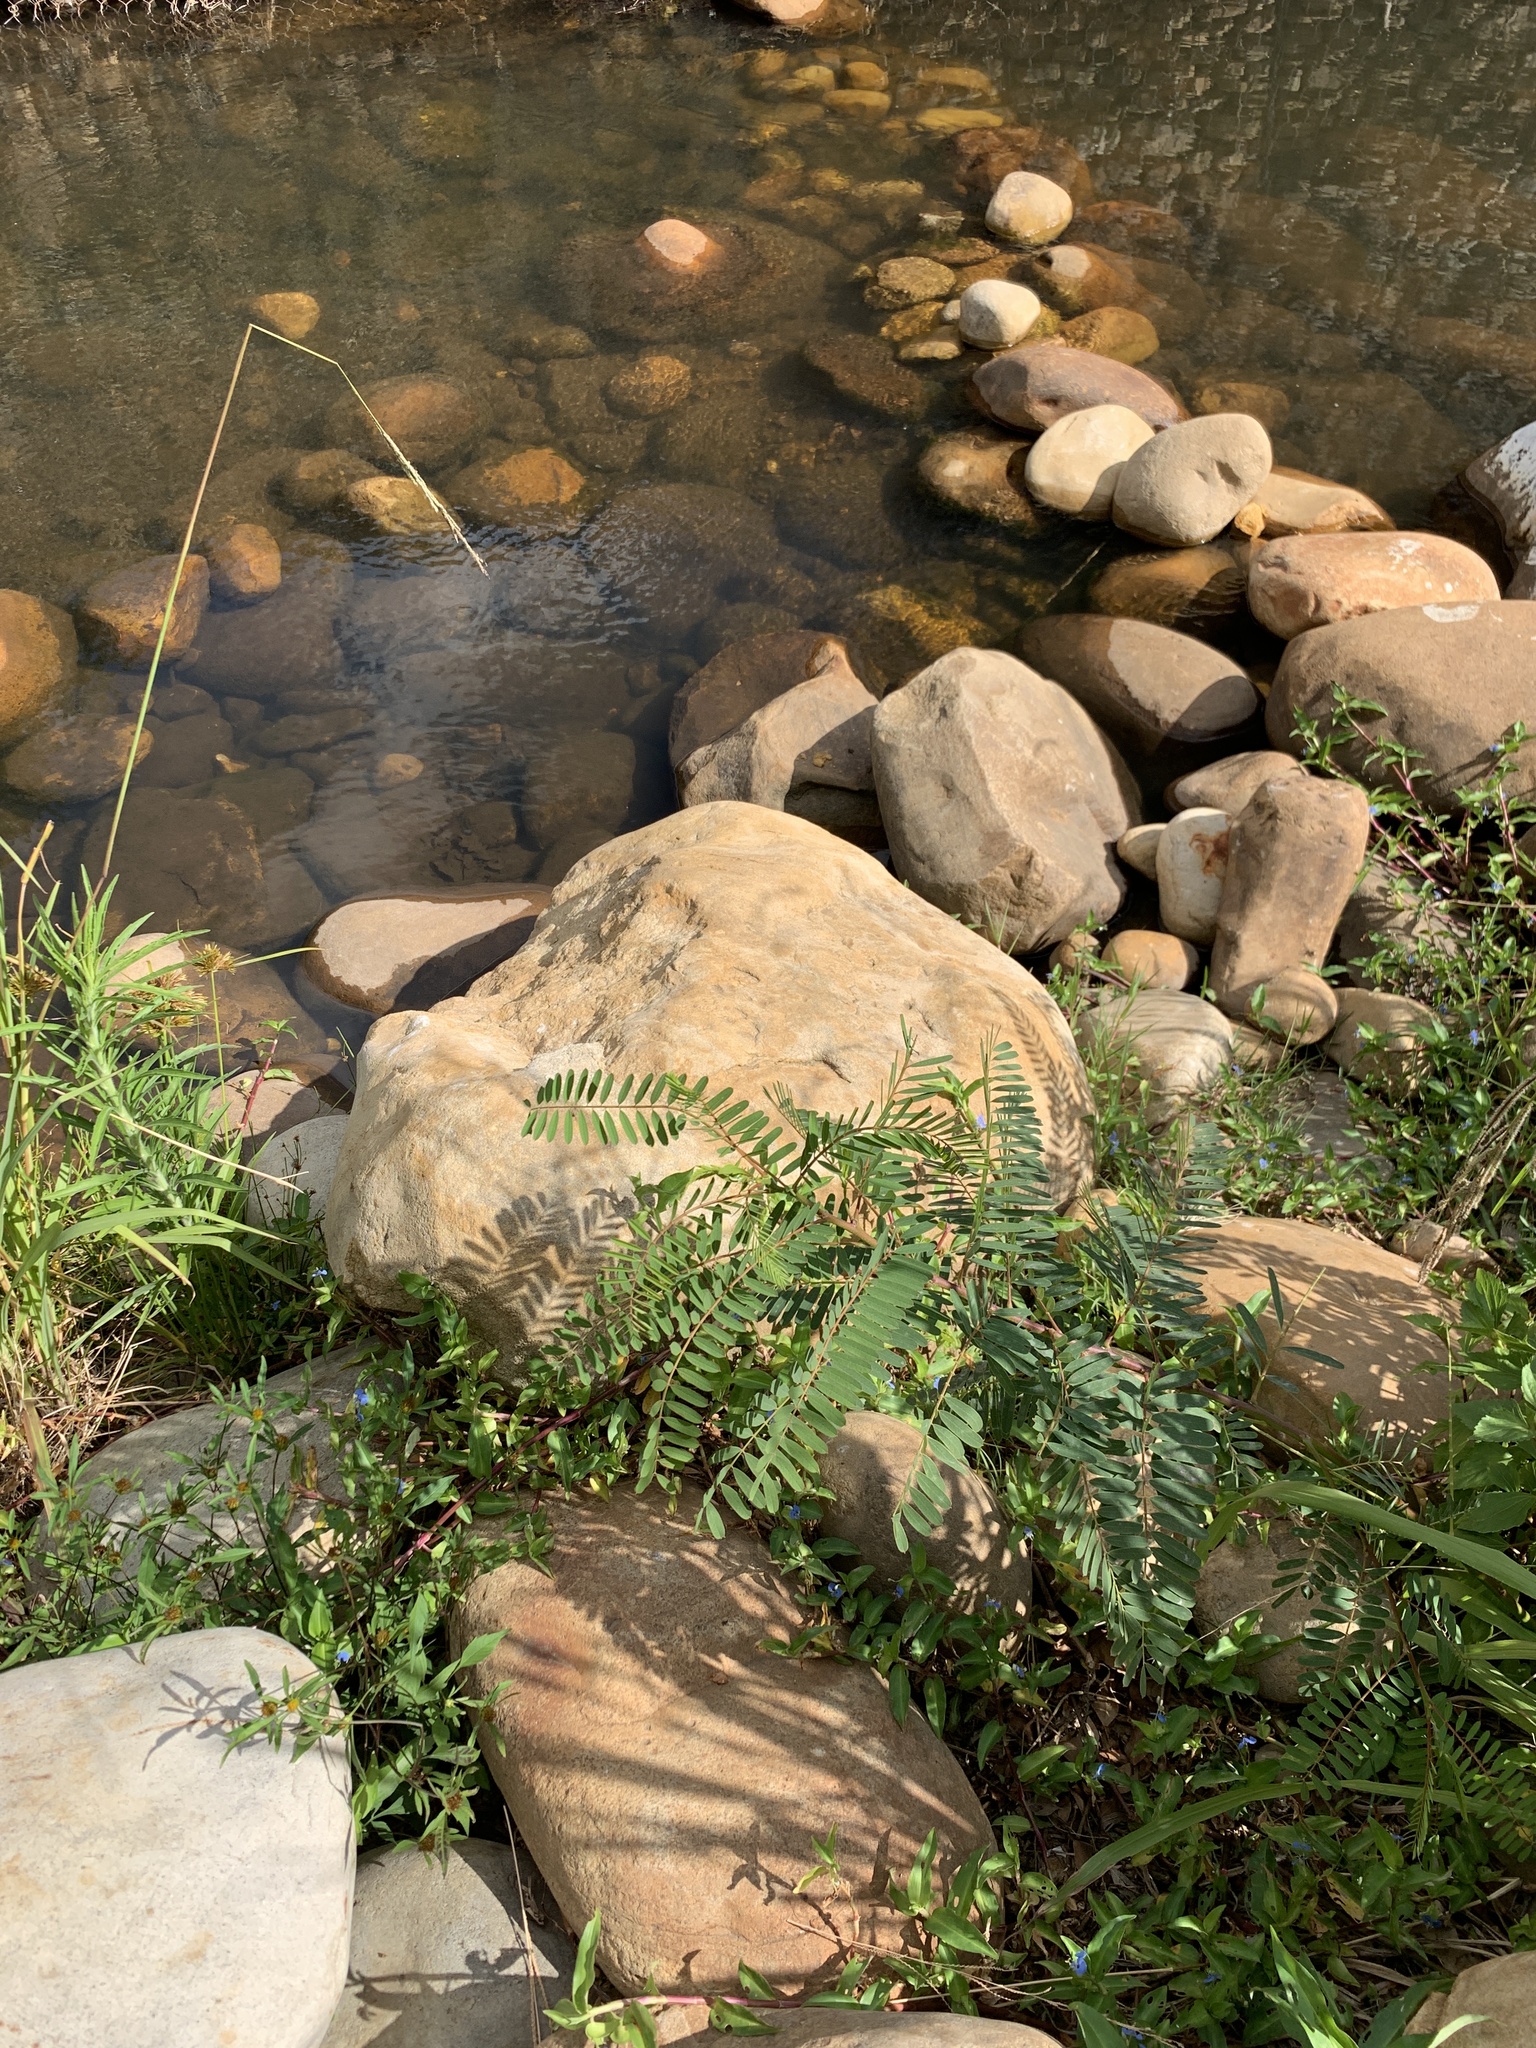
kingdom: Plantae
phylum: Tracheophyta
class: Magnoliopsida
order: Fabales
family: Fabaceae
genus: Sesbania
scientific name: Sesbania punicea
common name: Rattlebox
